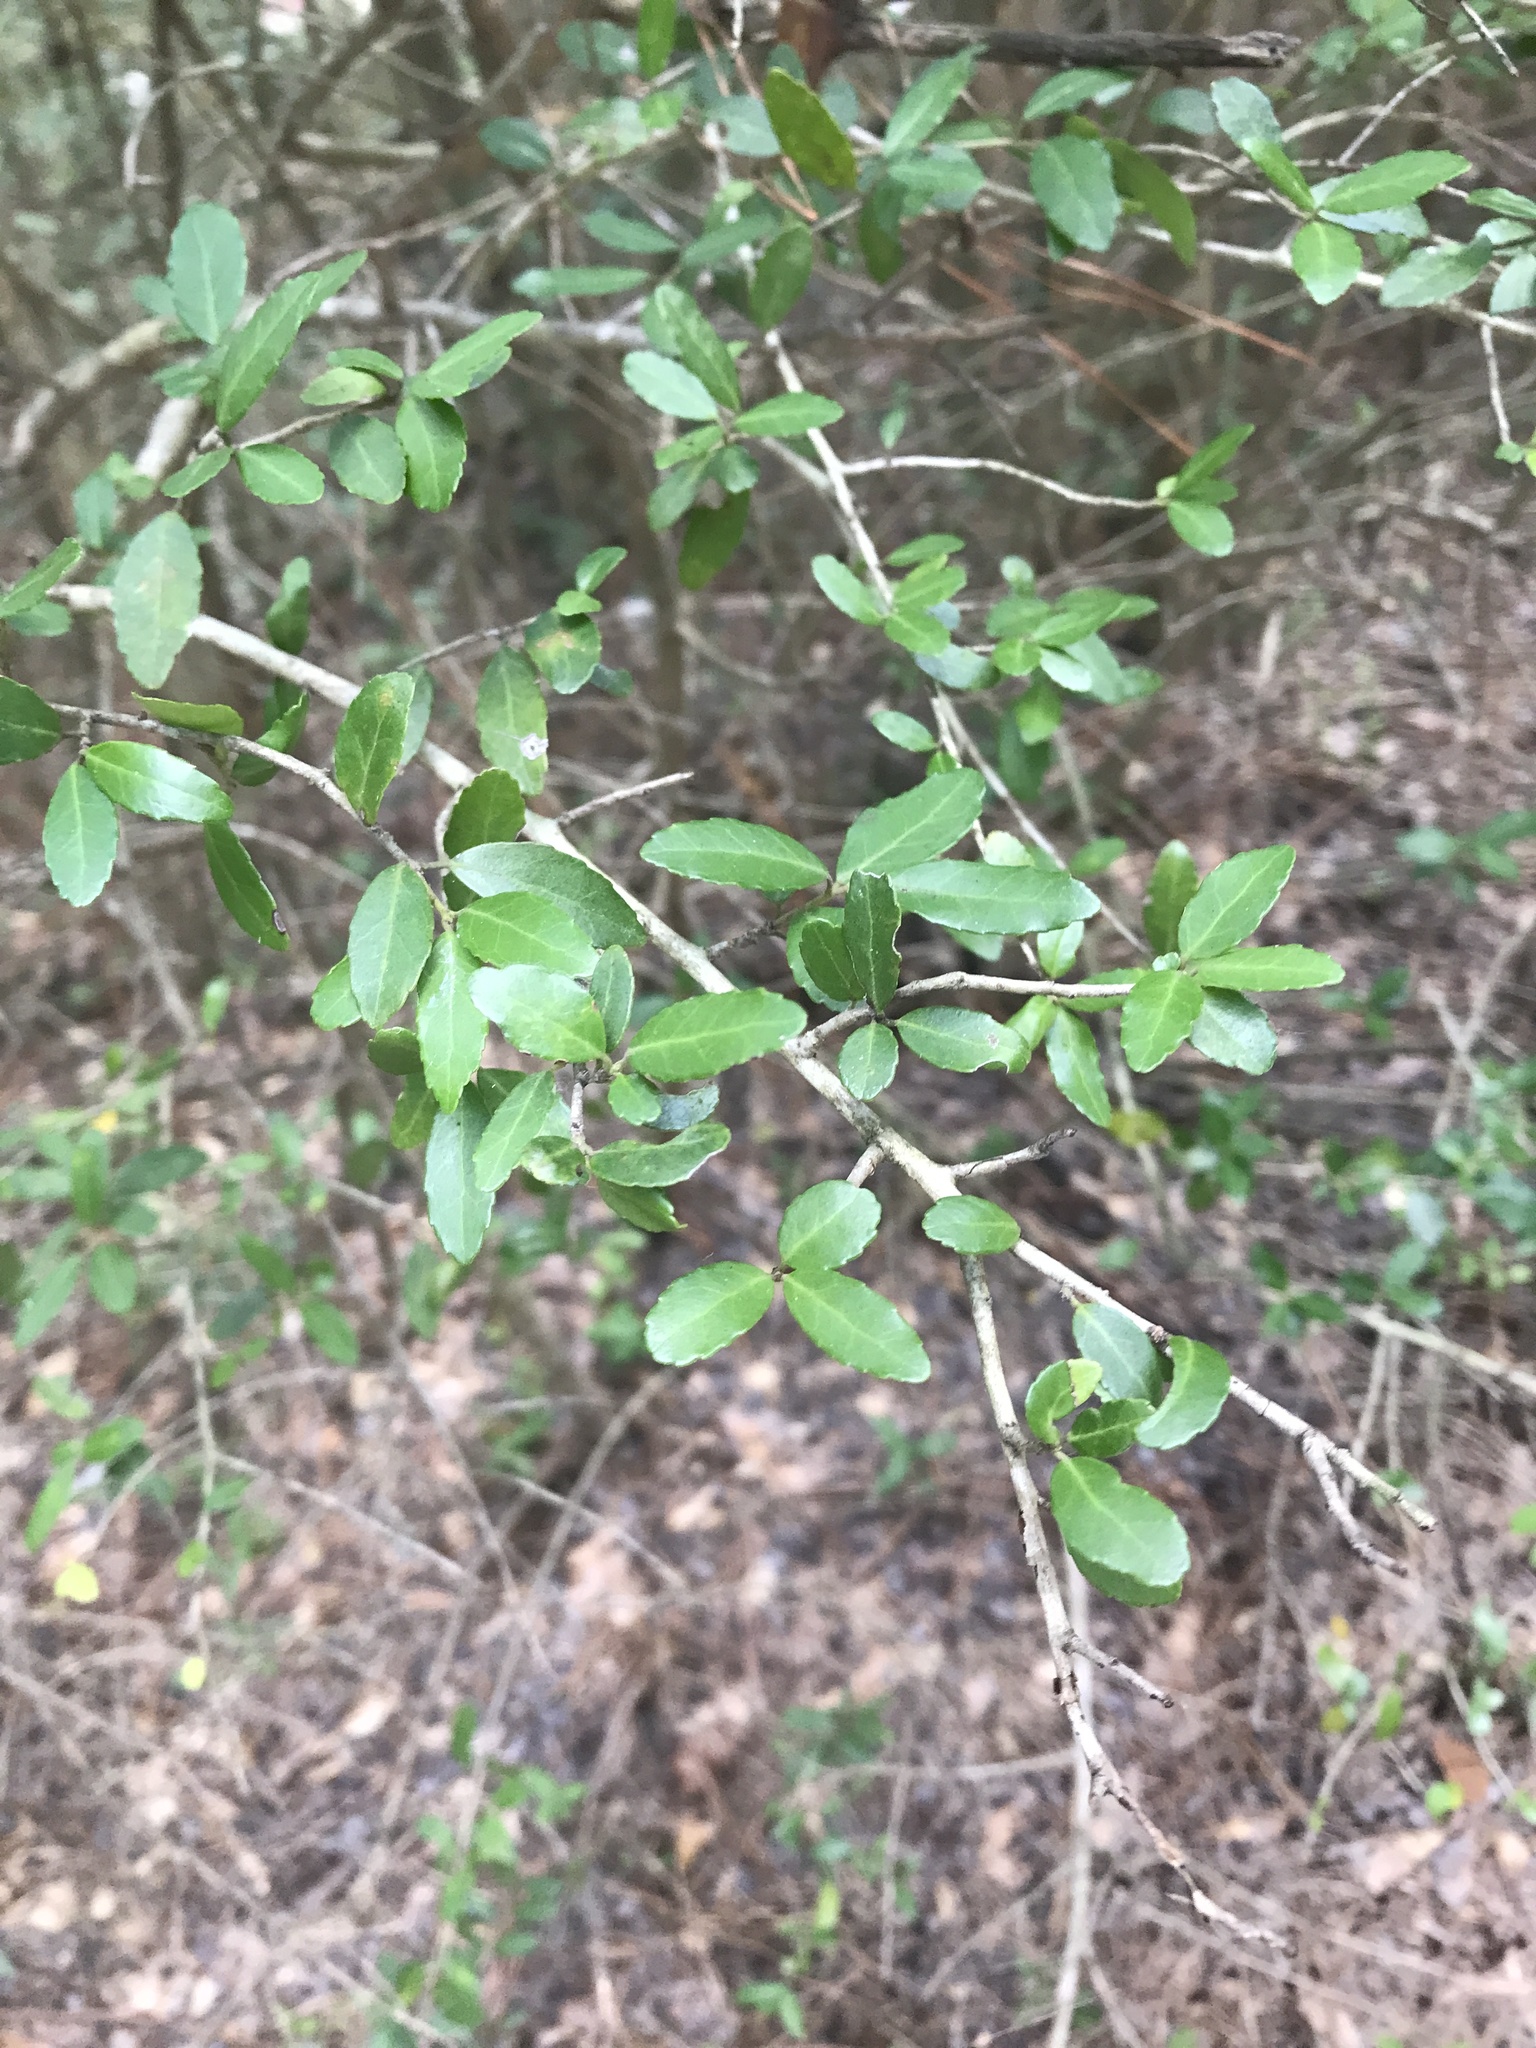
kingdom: Plantae
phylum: Tracheophyta
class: Magnoliopsida
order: Aquifoliales
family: Aquifoliaceae
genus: Ilex
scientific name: Ilex vomitoria
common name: Yaupon holly
